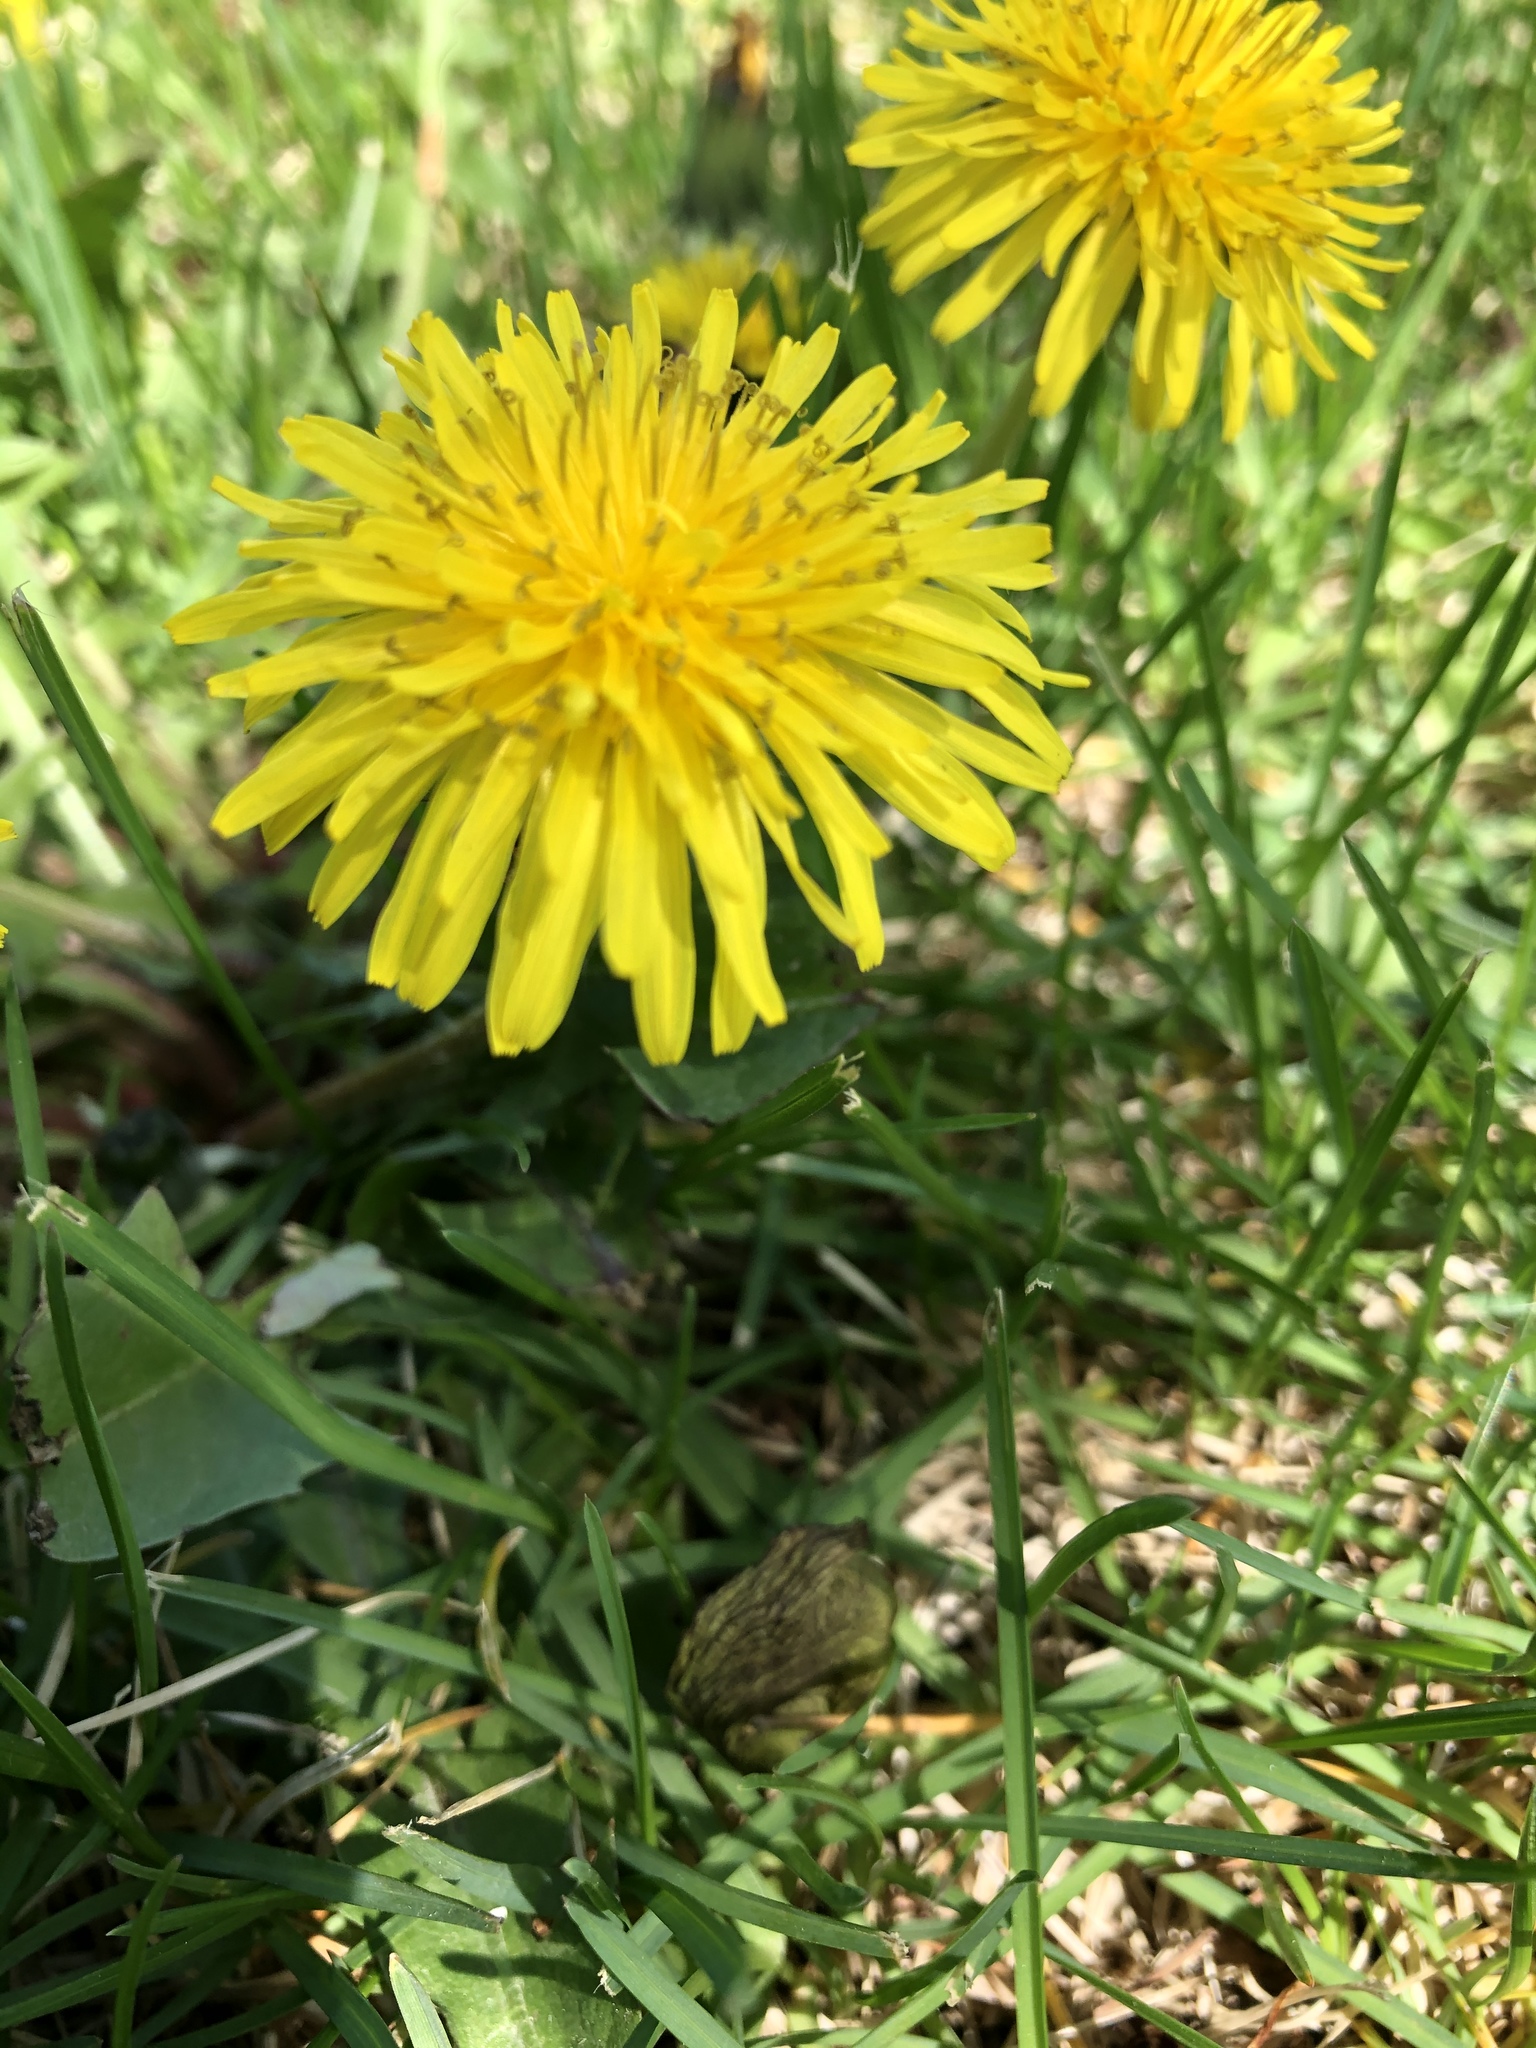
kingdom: Plantae
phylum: Tracheophyta
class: Magnoliopsida
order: Asterales
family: Asteraceae
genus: Taraxacum
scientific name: Taraxacum officinale
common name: Common dandelion
